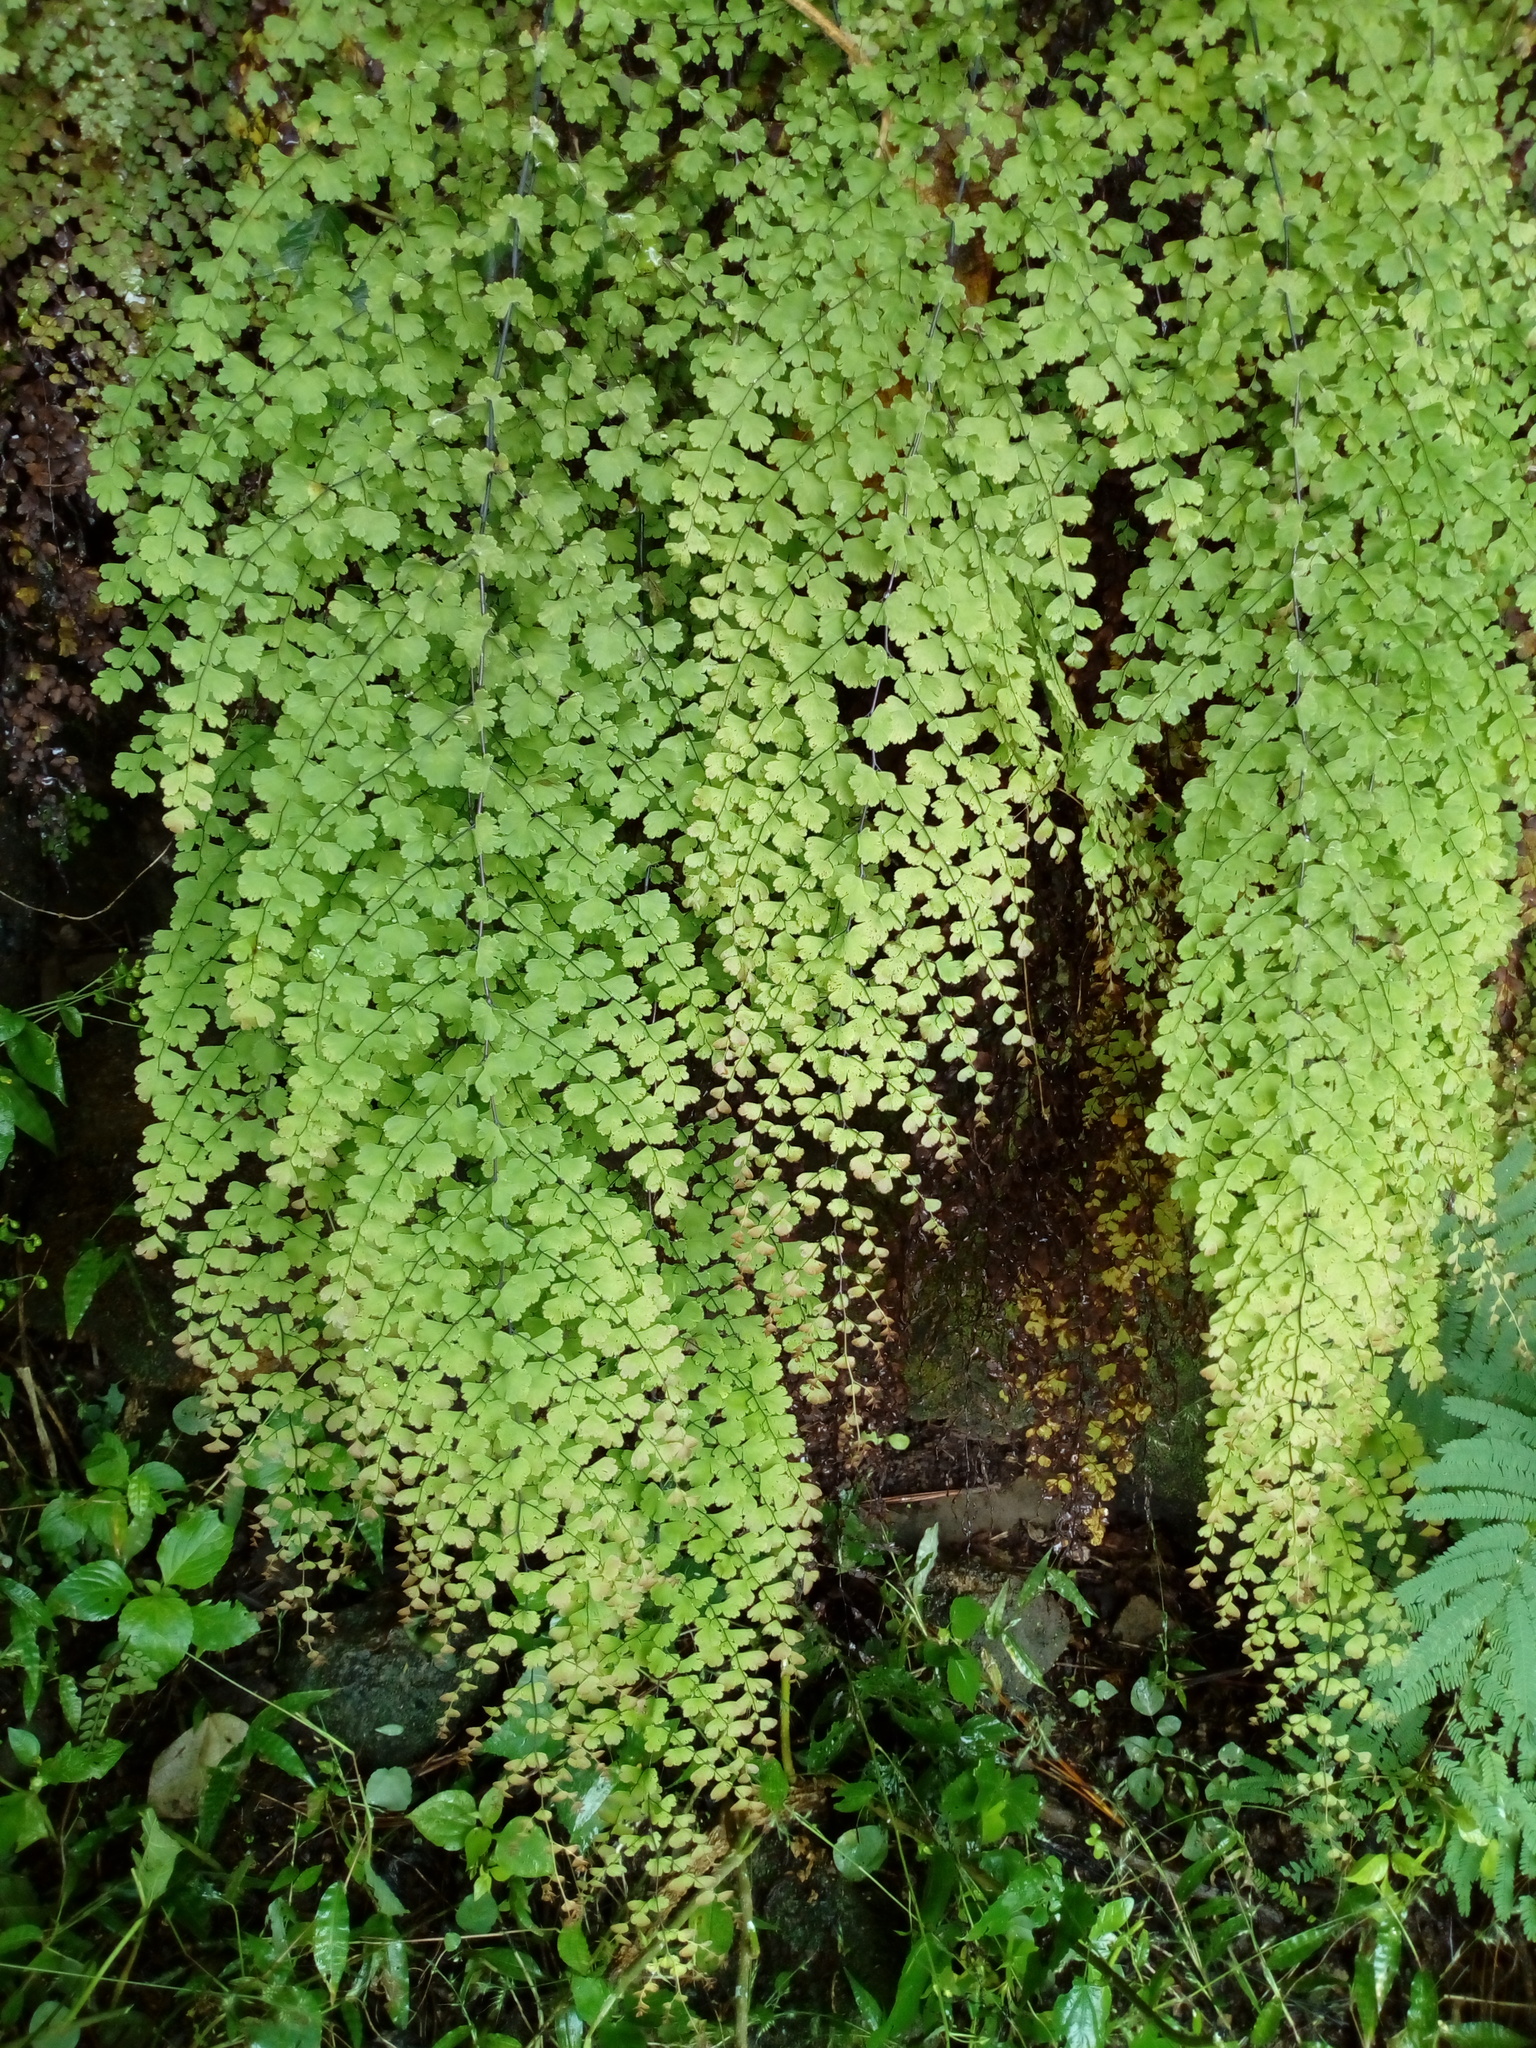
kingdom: Plantae
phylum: Tracheophyta
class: Polypodiopsida
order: Polypodiales
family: Pteridaceae
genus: Adiantum
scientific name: Adiantum concinnum
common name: Brittle maidenhair fern
